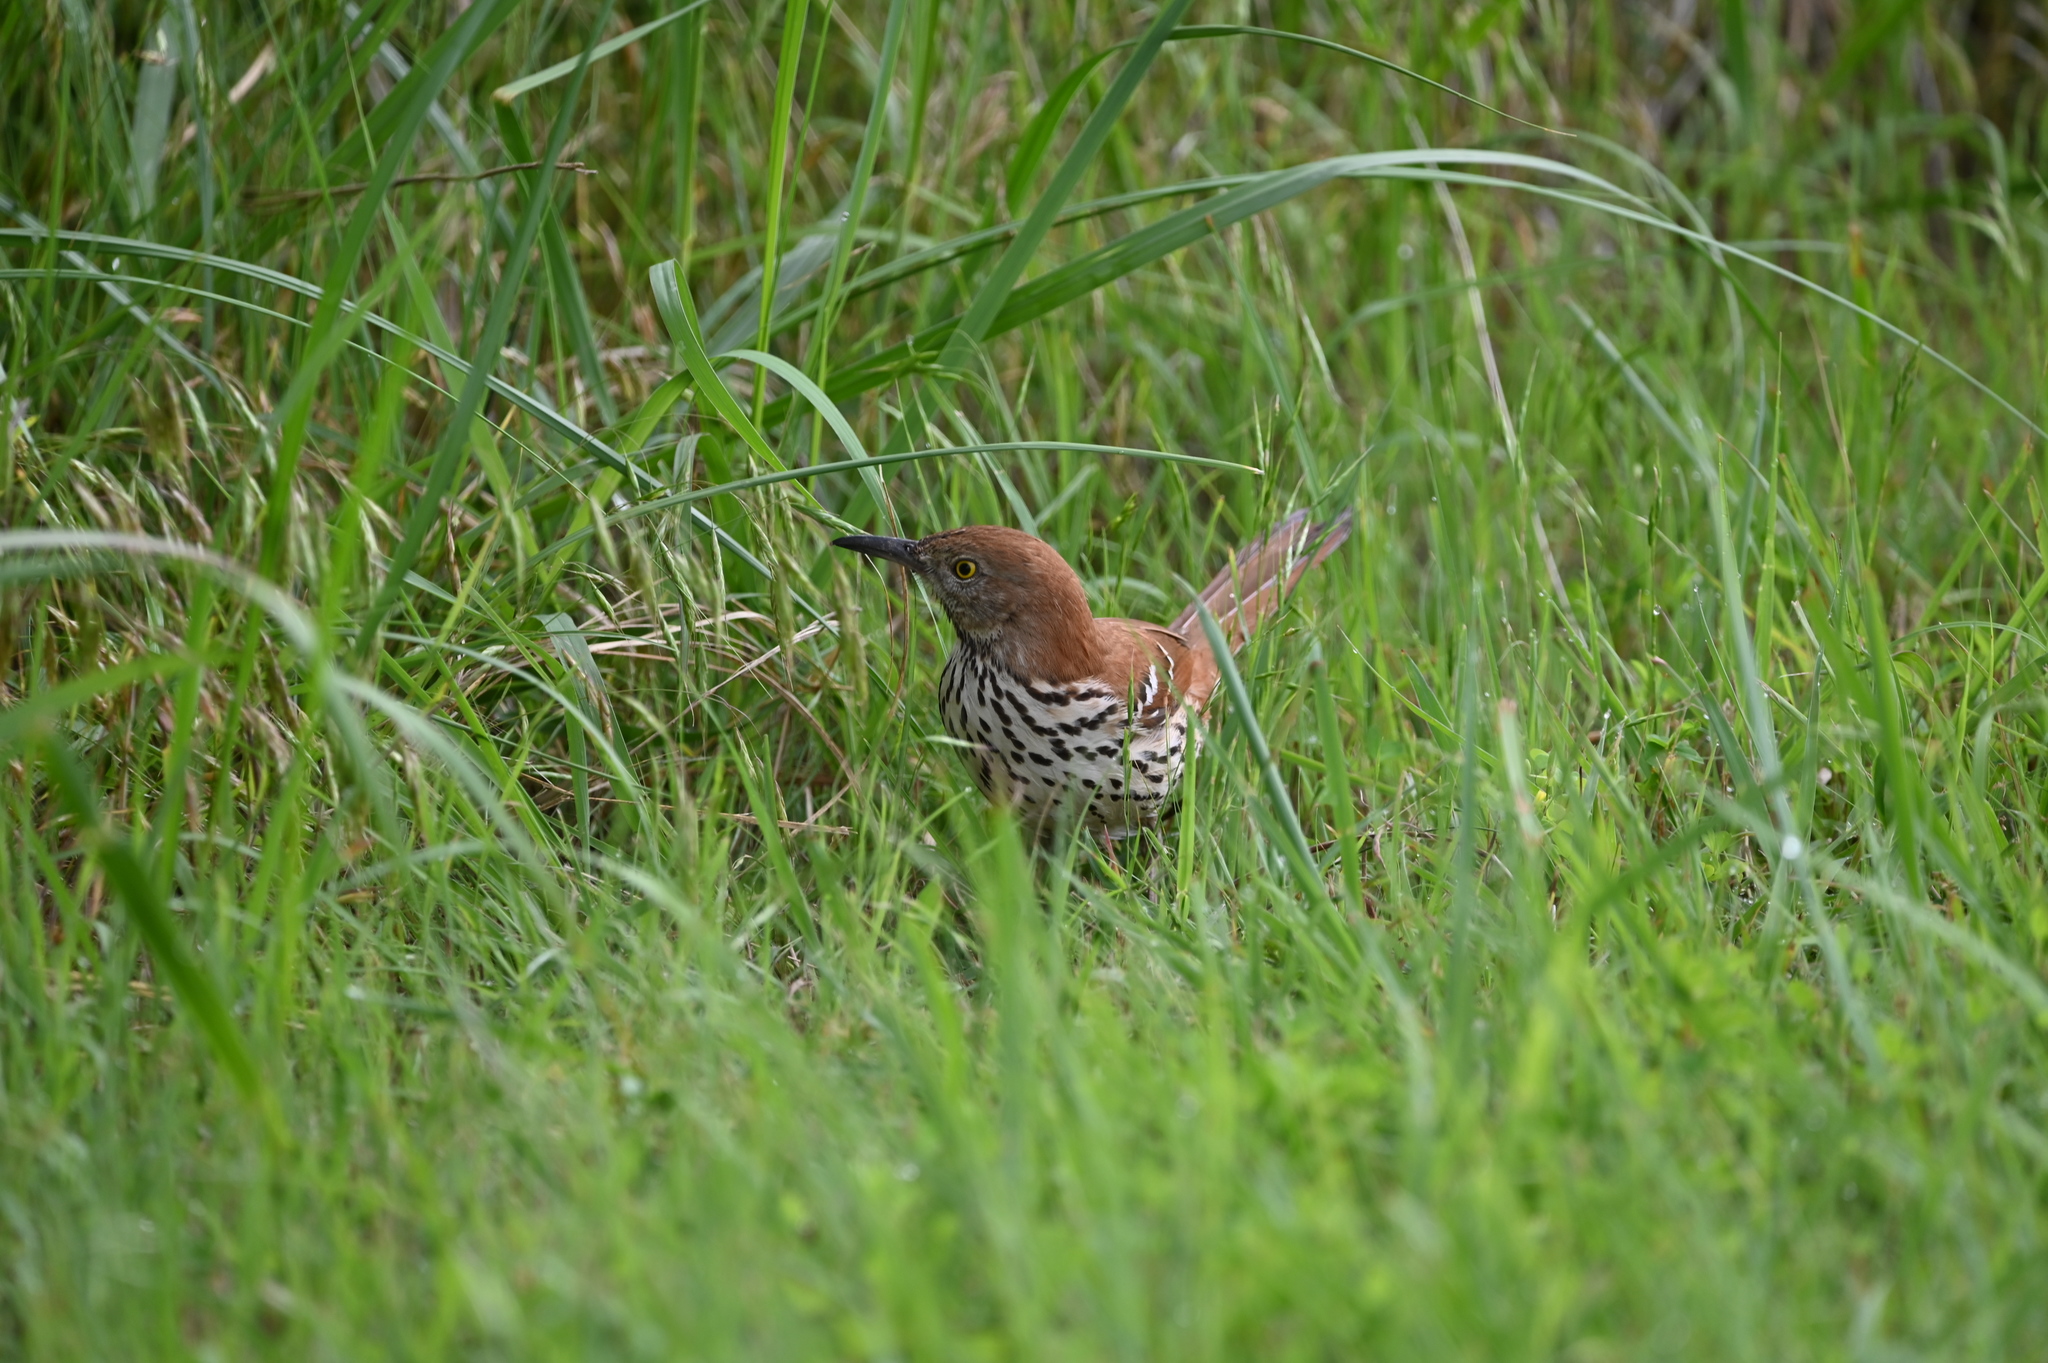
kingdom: Animalia
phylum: Chordata
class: Aves
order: Passeriformes
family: Mimidae
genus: Toxostoma
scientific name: Toxostoma rufum
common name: Brown thrasher
